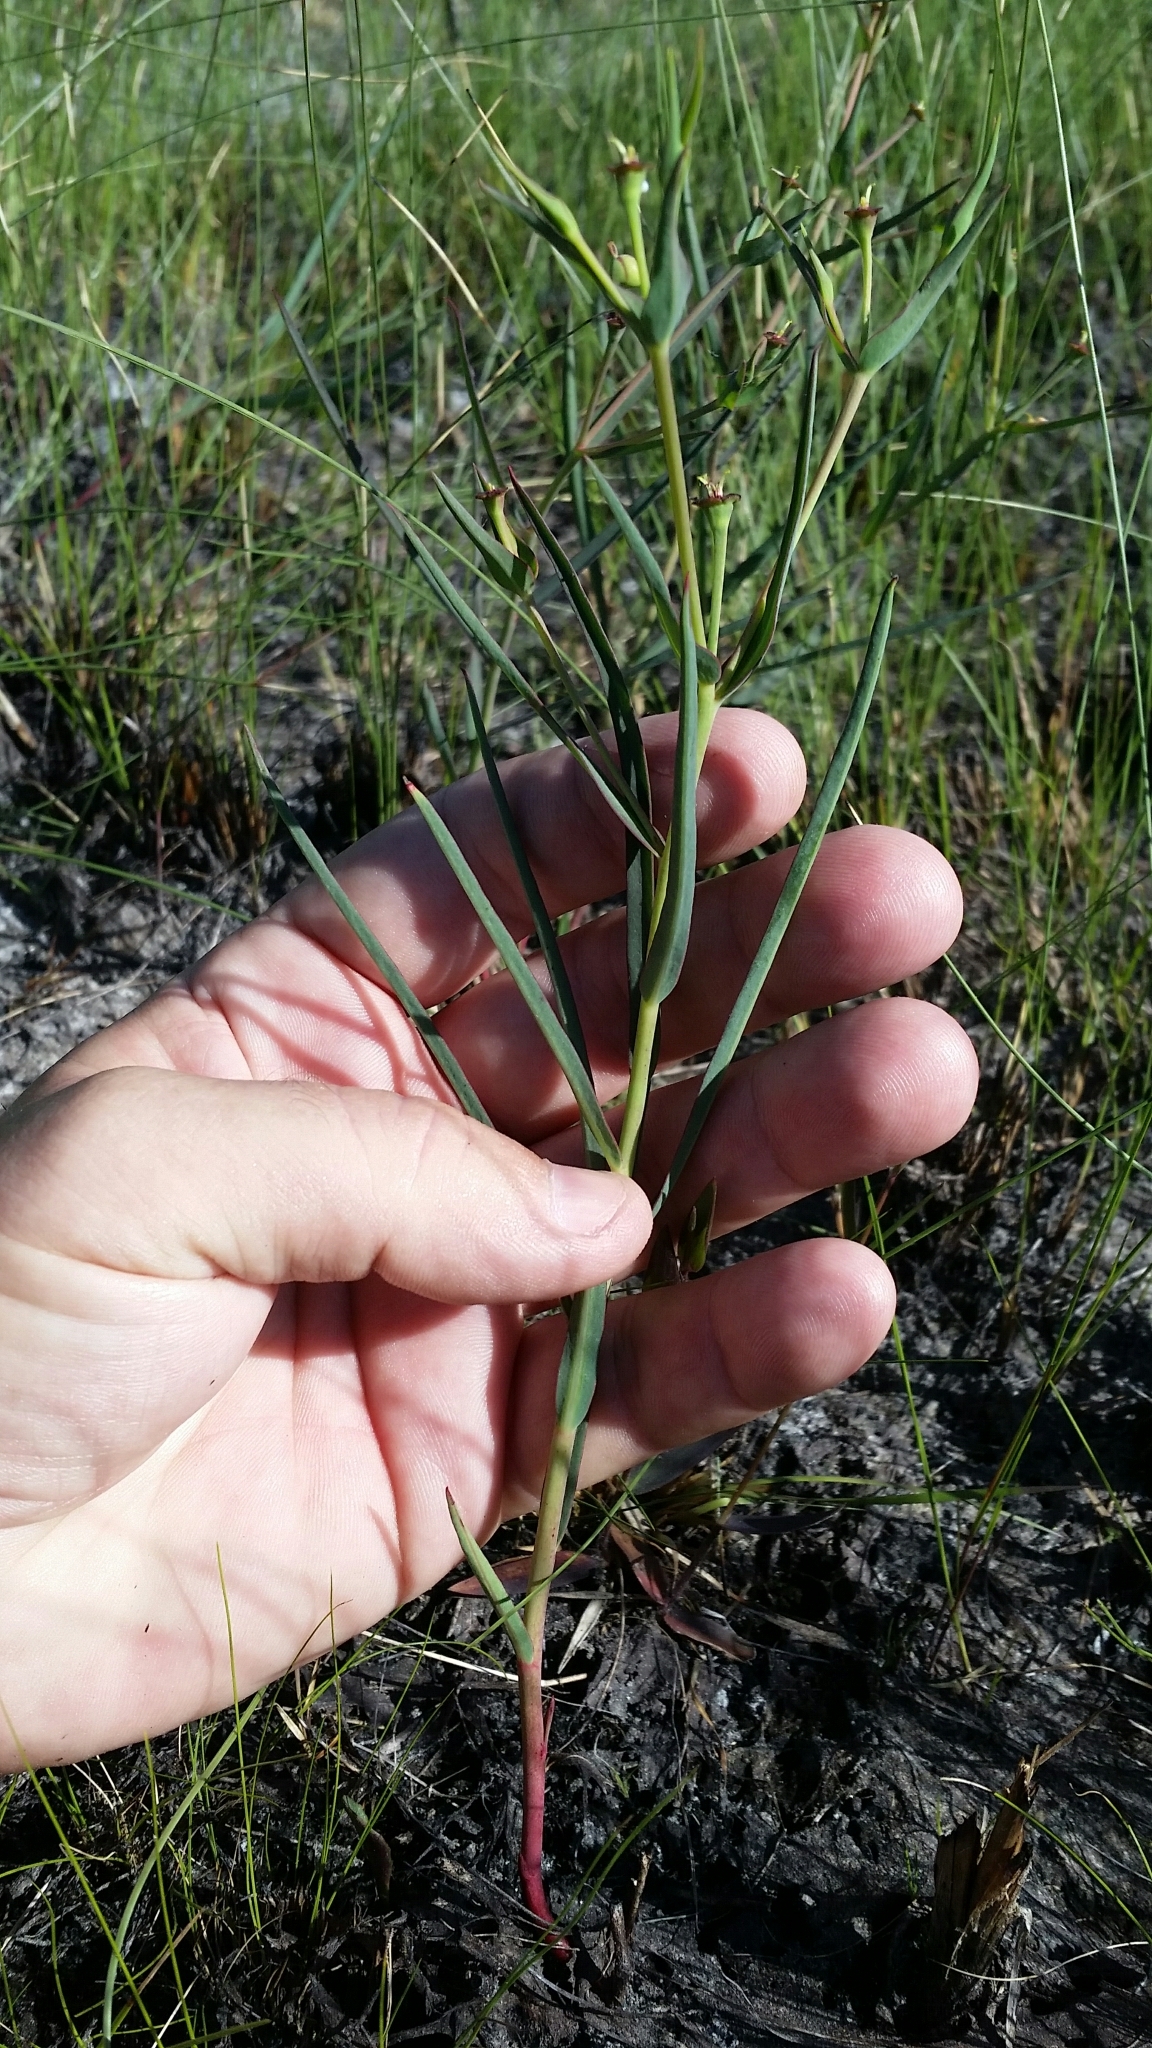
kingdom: Plantae
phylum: Tracheophyta
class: Magnoliopsida
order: Malpighiales
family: Euphorbiaceae
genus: Euphorbia
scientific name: Euphorbia inundata
